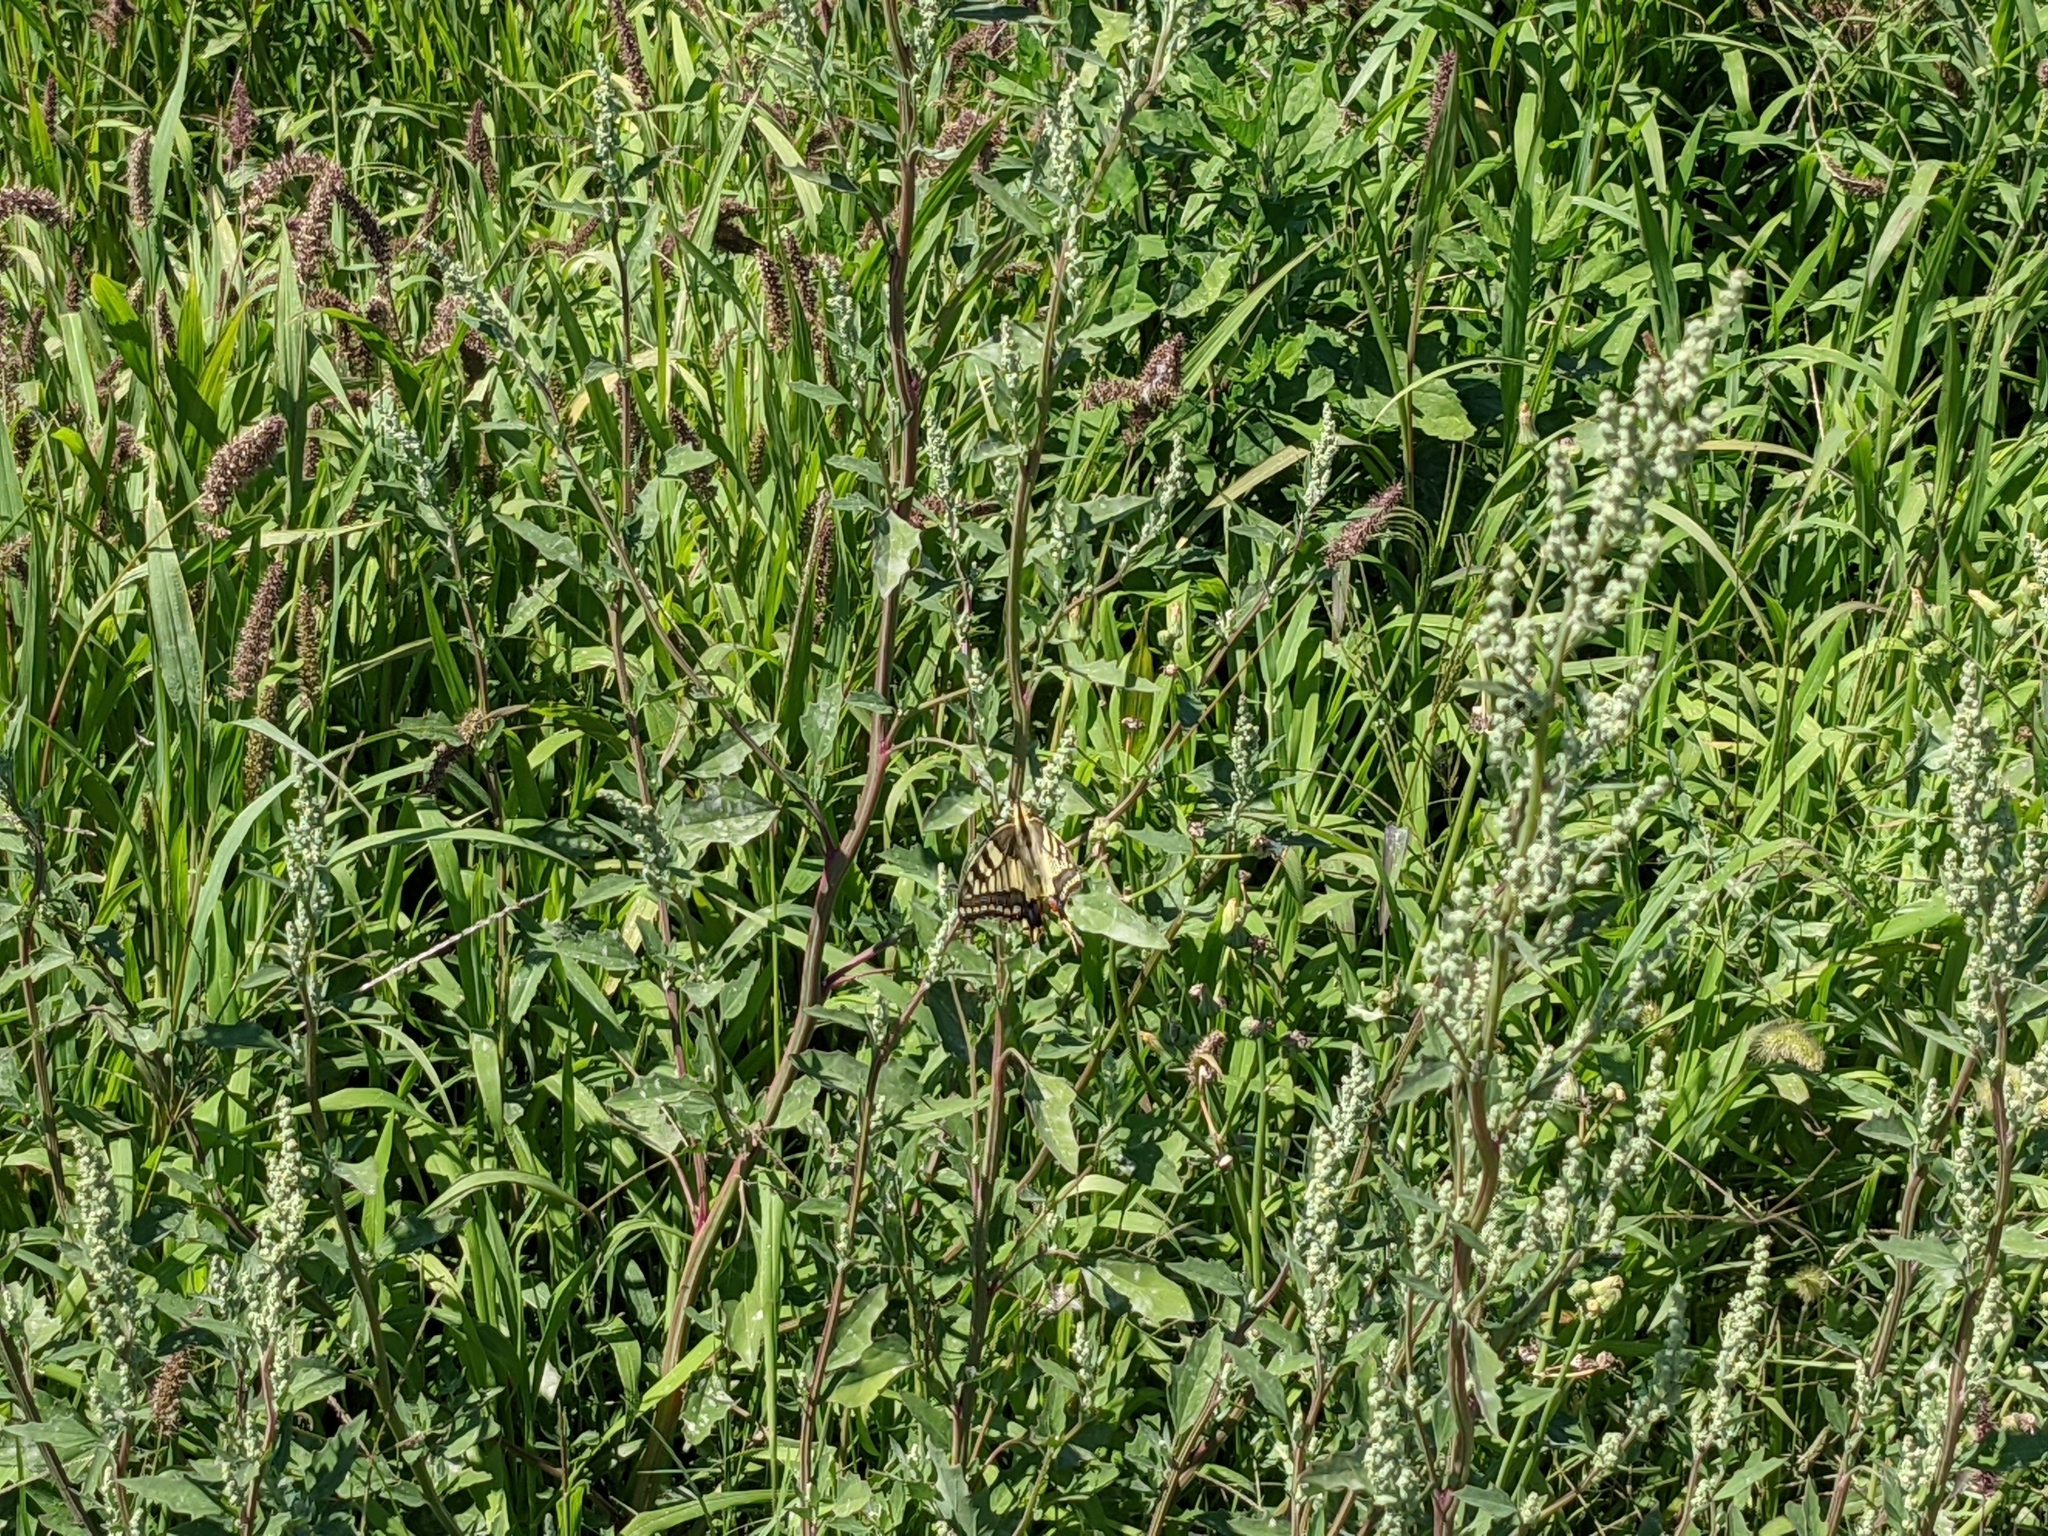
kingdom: Animalia
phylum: Arthropoda
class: Insecta
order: Lepidoptera
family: Papilionidae
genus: Papilio
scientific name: Papilio machaon
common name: Swallowtail
